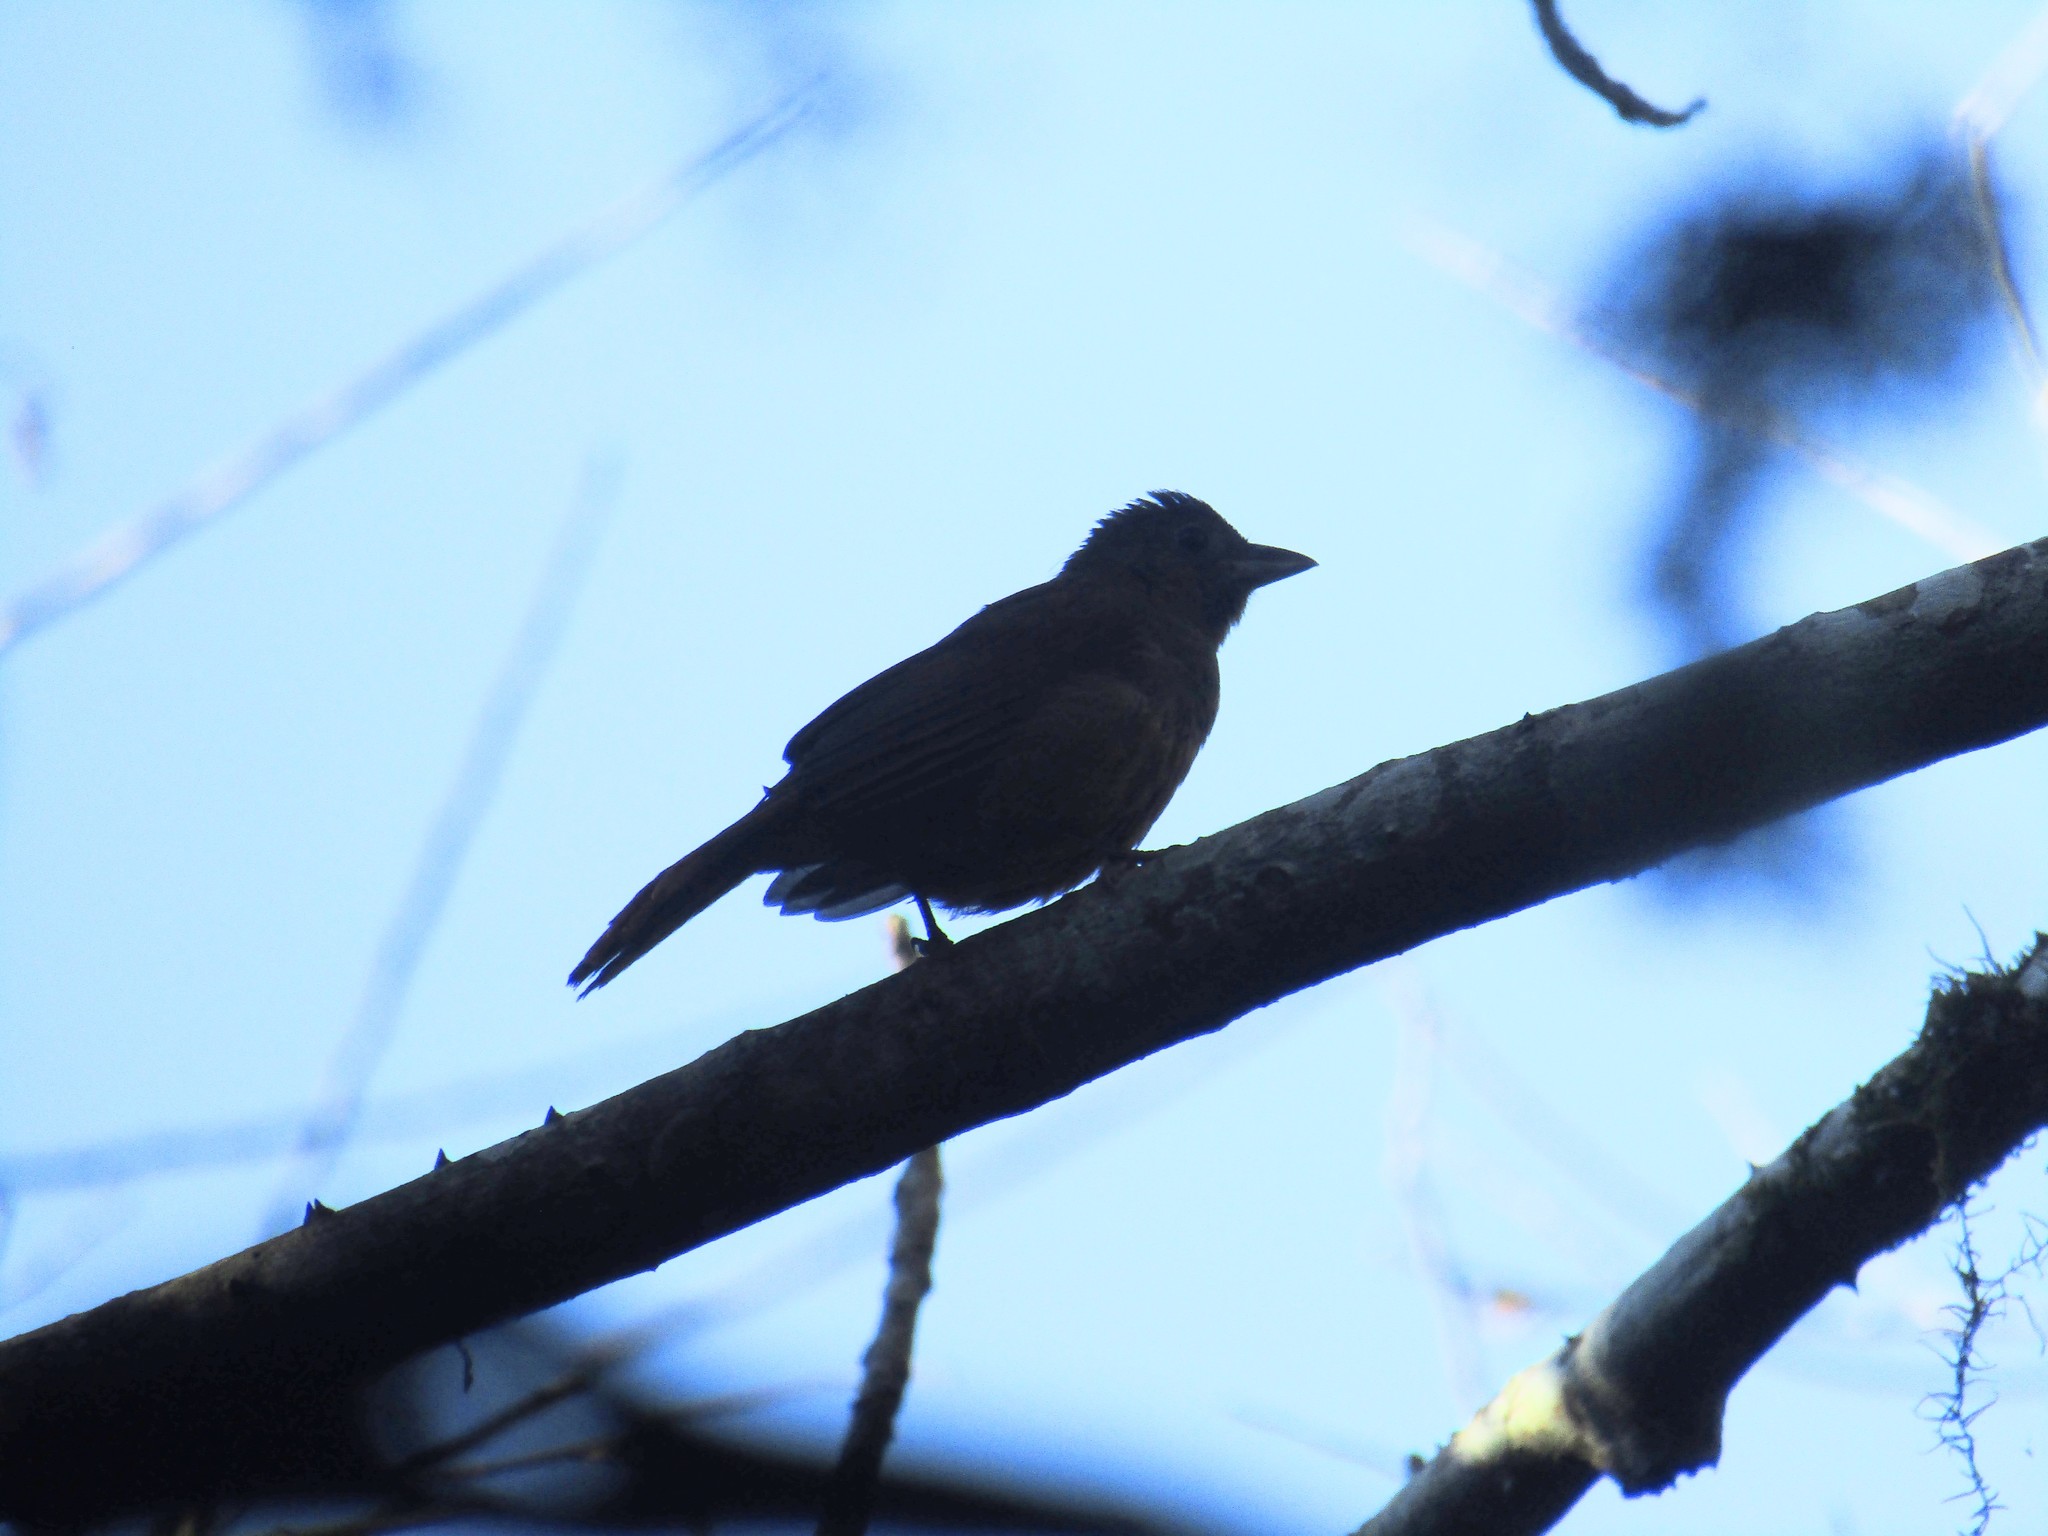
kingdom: Animalia
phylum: Chordata
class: Aves
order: Passeriformes
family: Thraupidae
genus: Trichothraupis
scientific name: Trichothraupis melanops
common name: Black-goggled tanager
